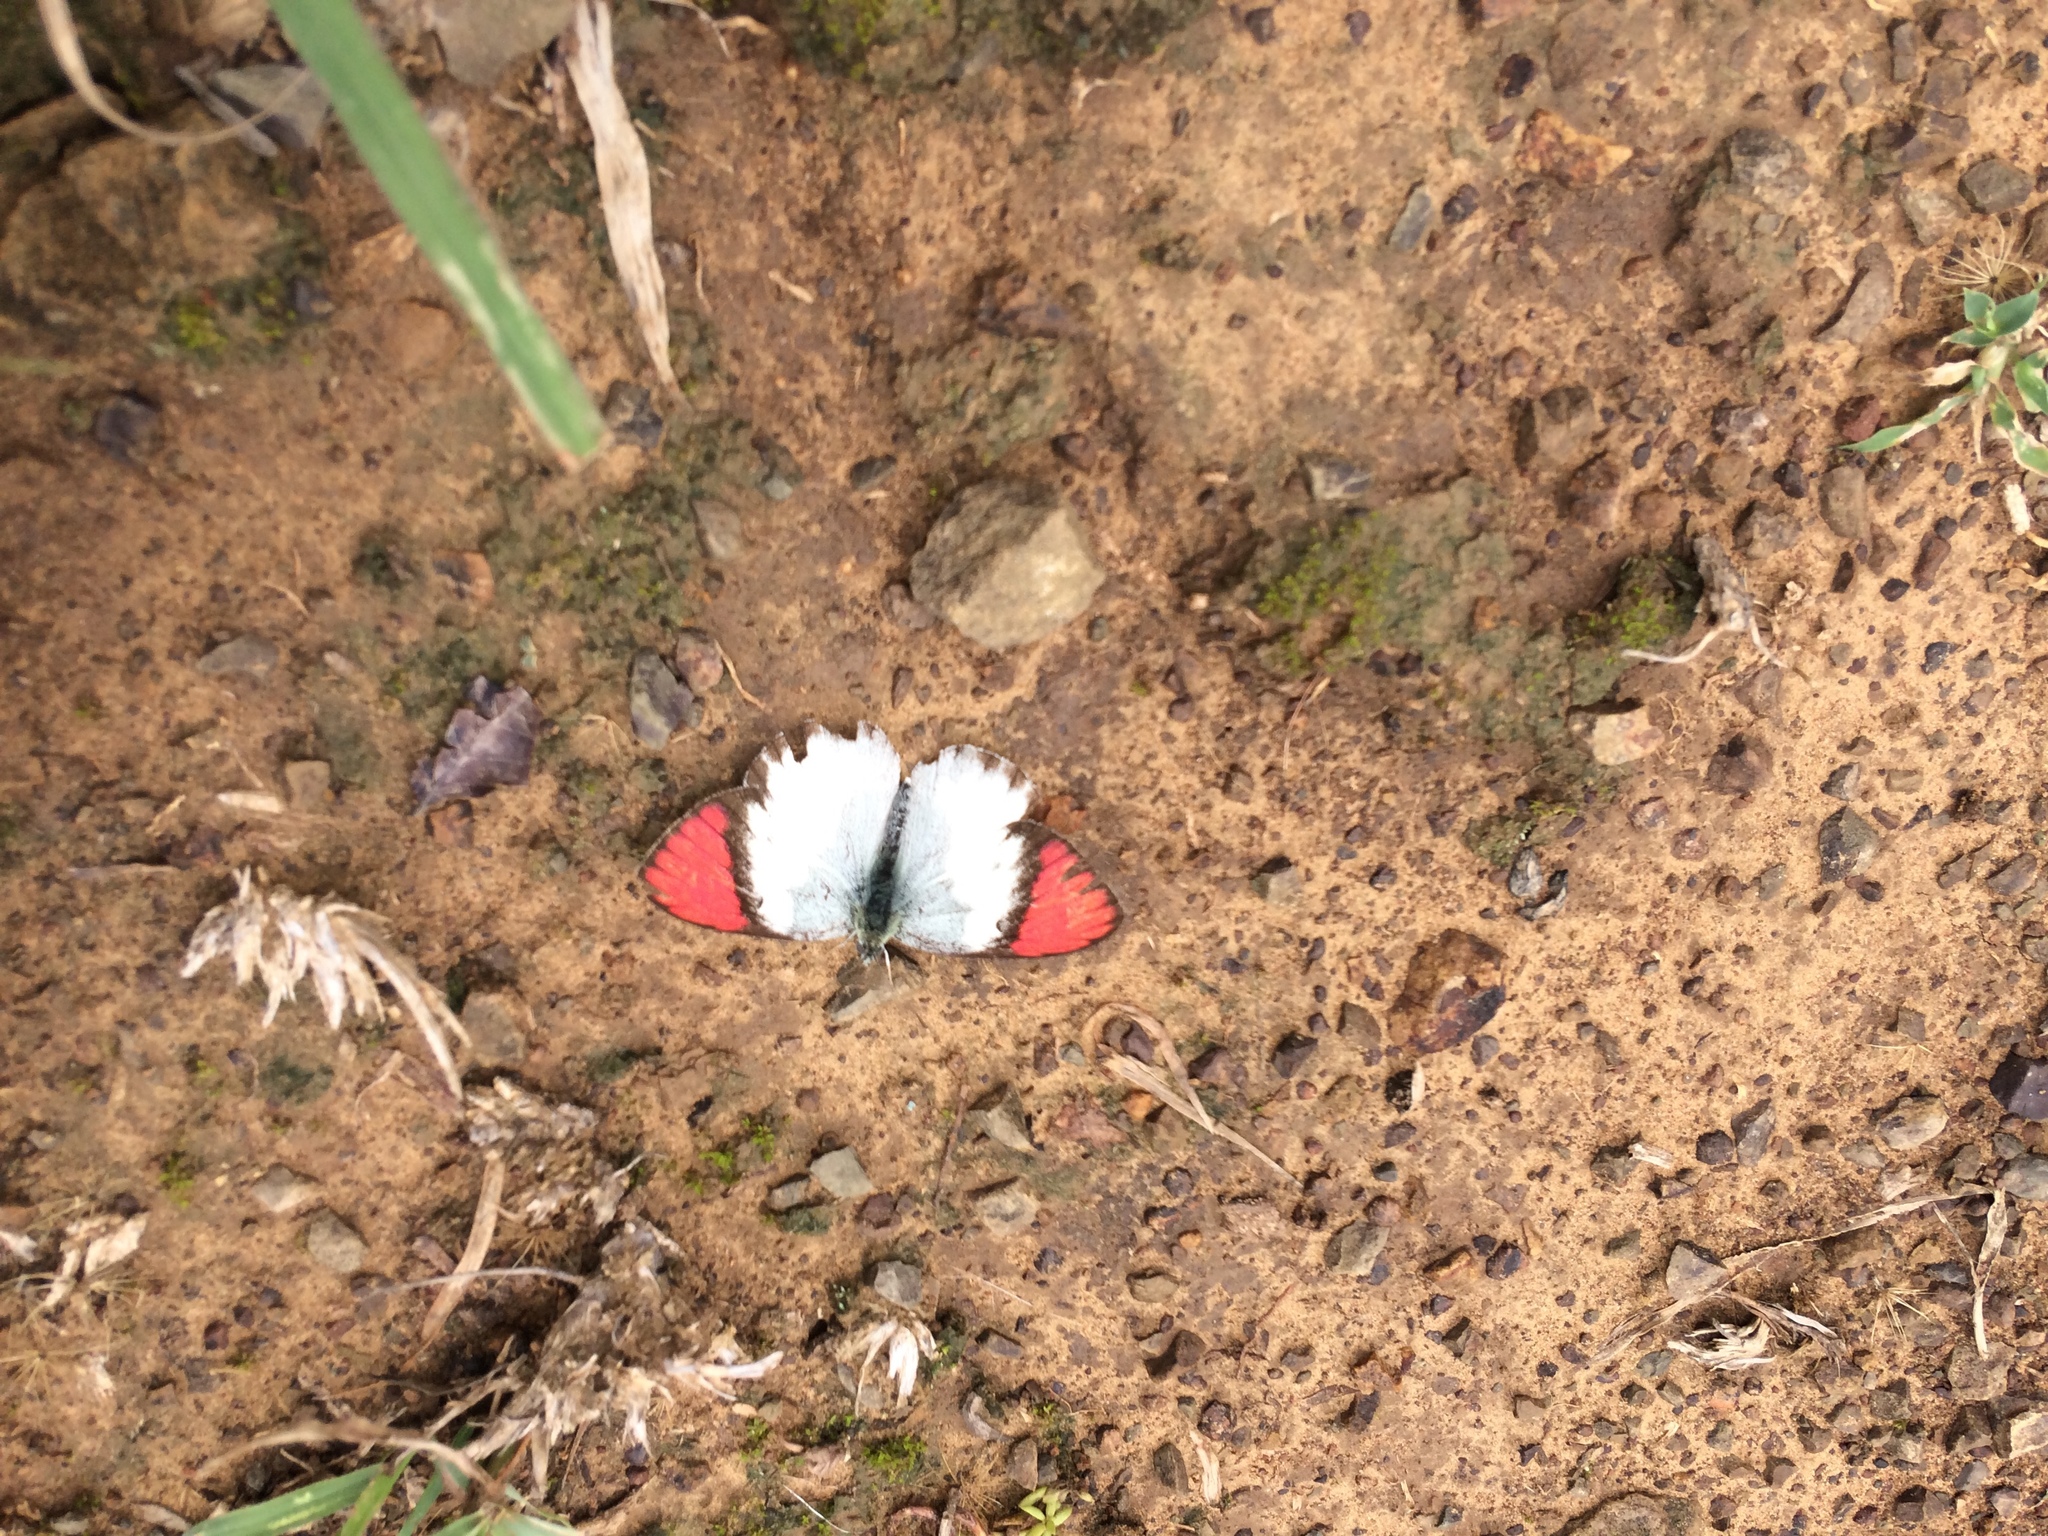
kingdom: Animalia
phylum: Arthropoda
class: Insecta
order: Lepidoptera
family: Pieridae
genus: Colotis
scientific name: Colotis annae
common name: Scarlet tip
